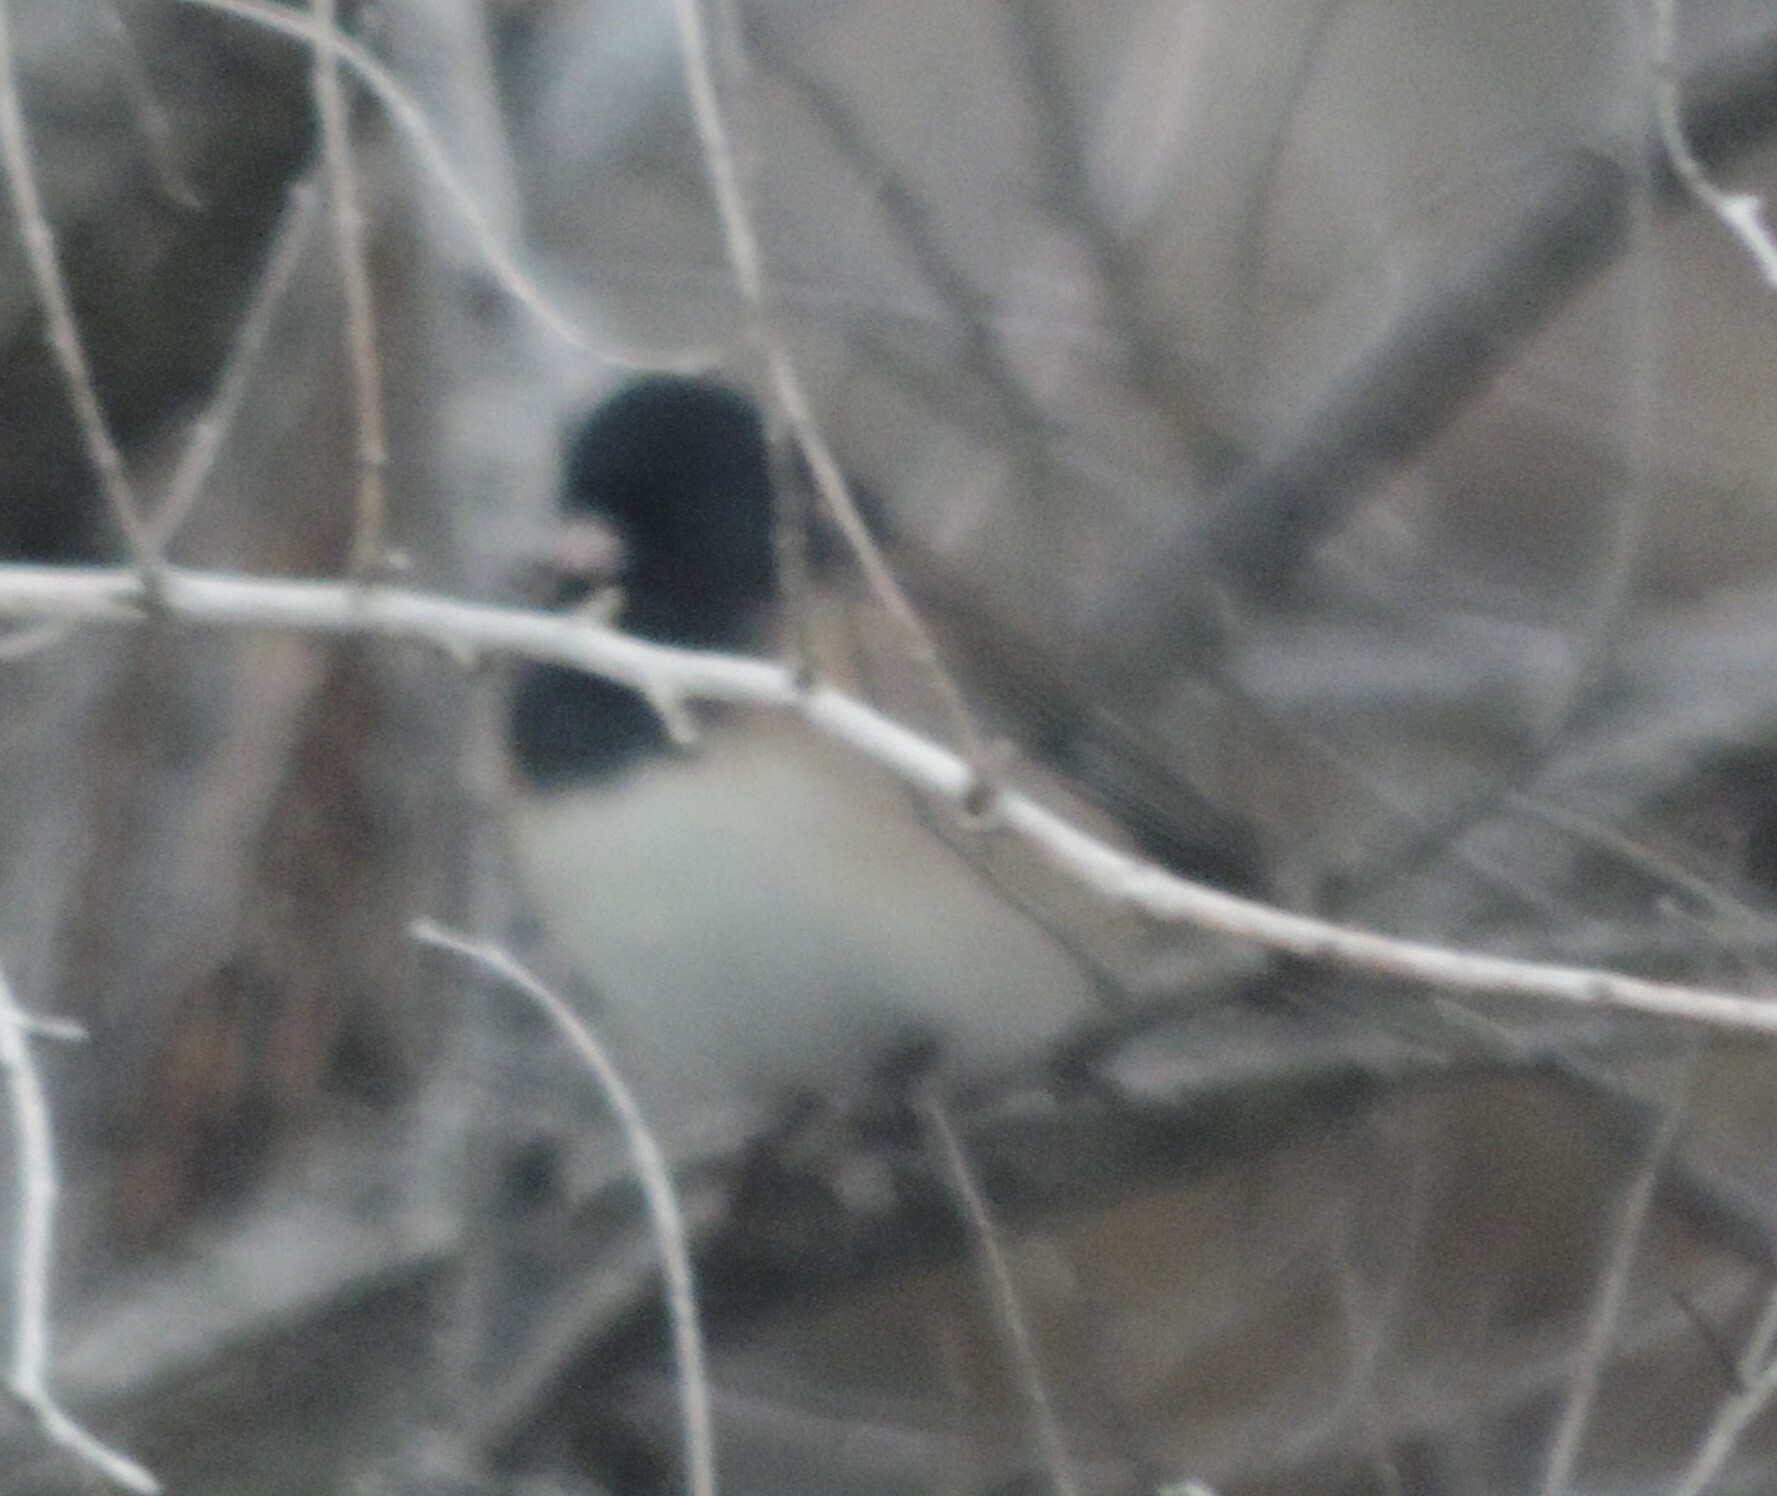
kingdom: Animalia
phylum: Chordata
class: Aves
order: Passeriformes
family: Passerellidae
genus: Junco
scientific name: Junco hyemalis
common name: Dark-eyed junco
